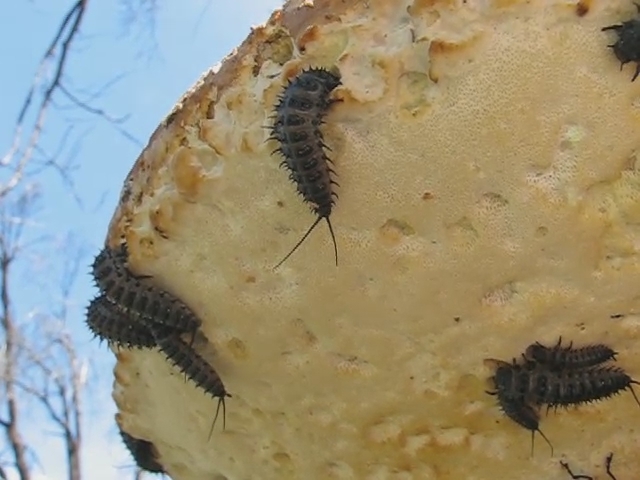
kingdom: Animalia
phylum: Arthropoda
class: Insecta
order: Coleoptera
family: Erotylidae
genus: Gibbifer
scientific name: Gibbifer californicus
